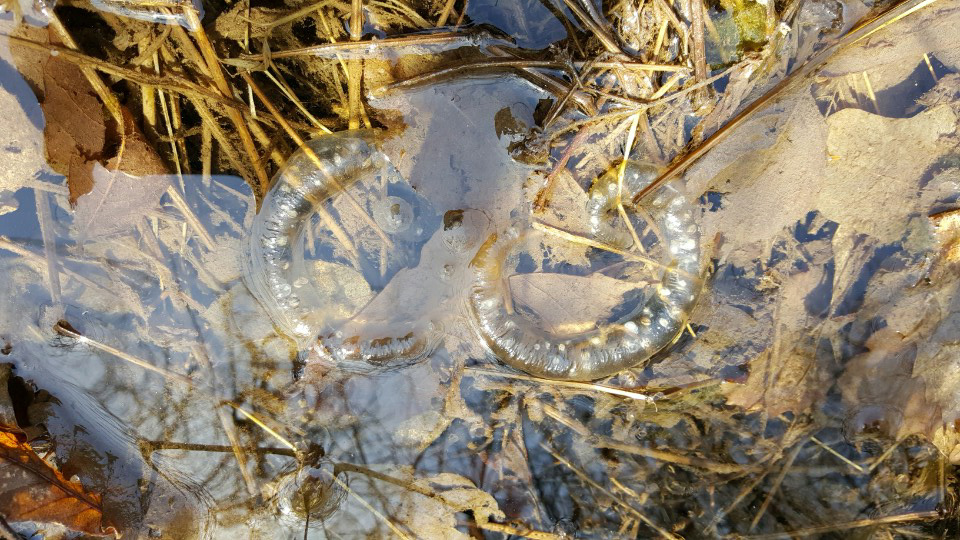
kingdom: Animalia
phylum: Chordata
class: Amphibia
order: Caudata
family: Hynobiidae
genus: Hynobius
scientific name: Hynobius leechii
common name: Gensan salamander
